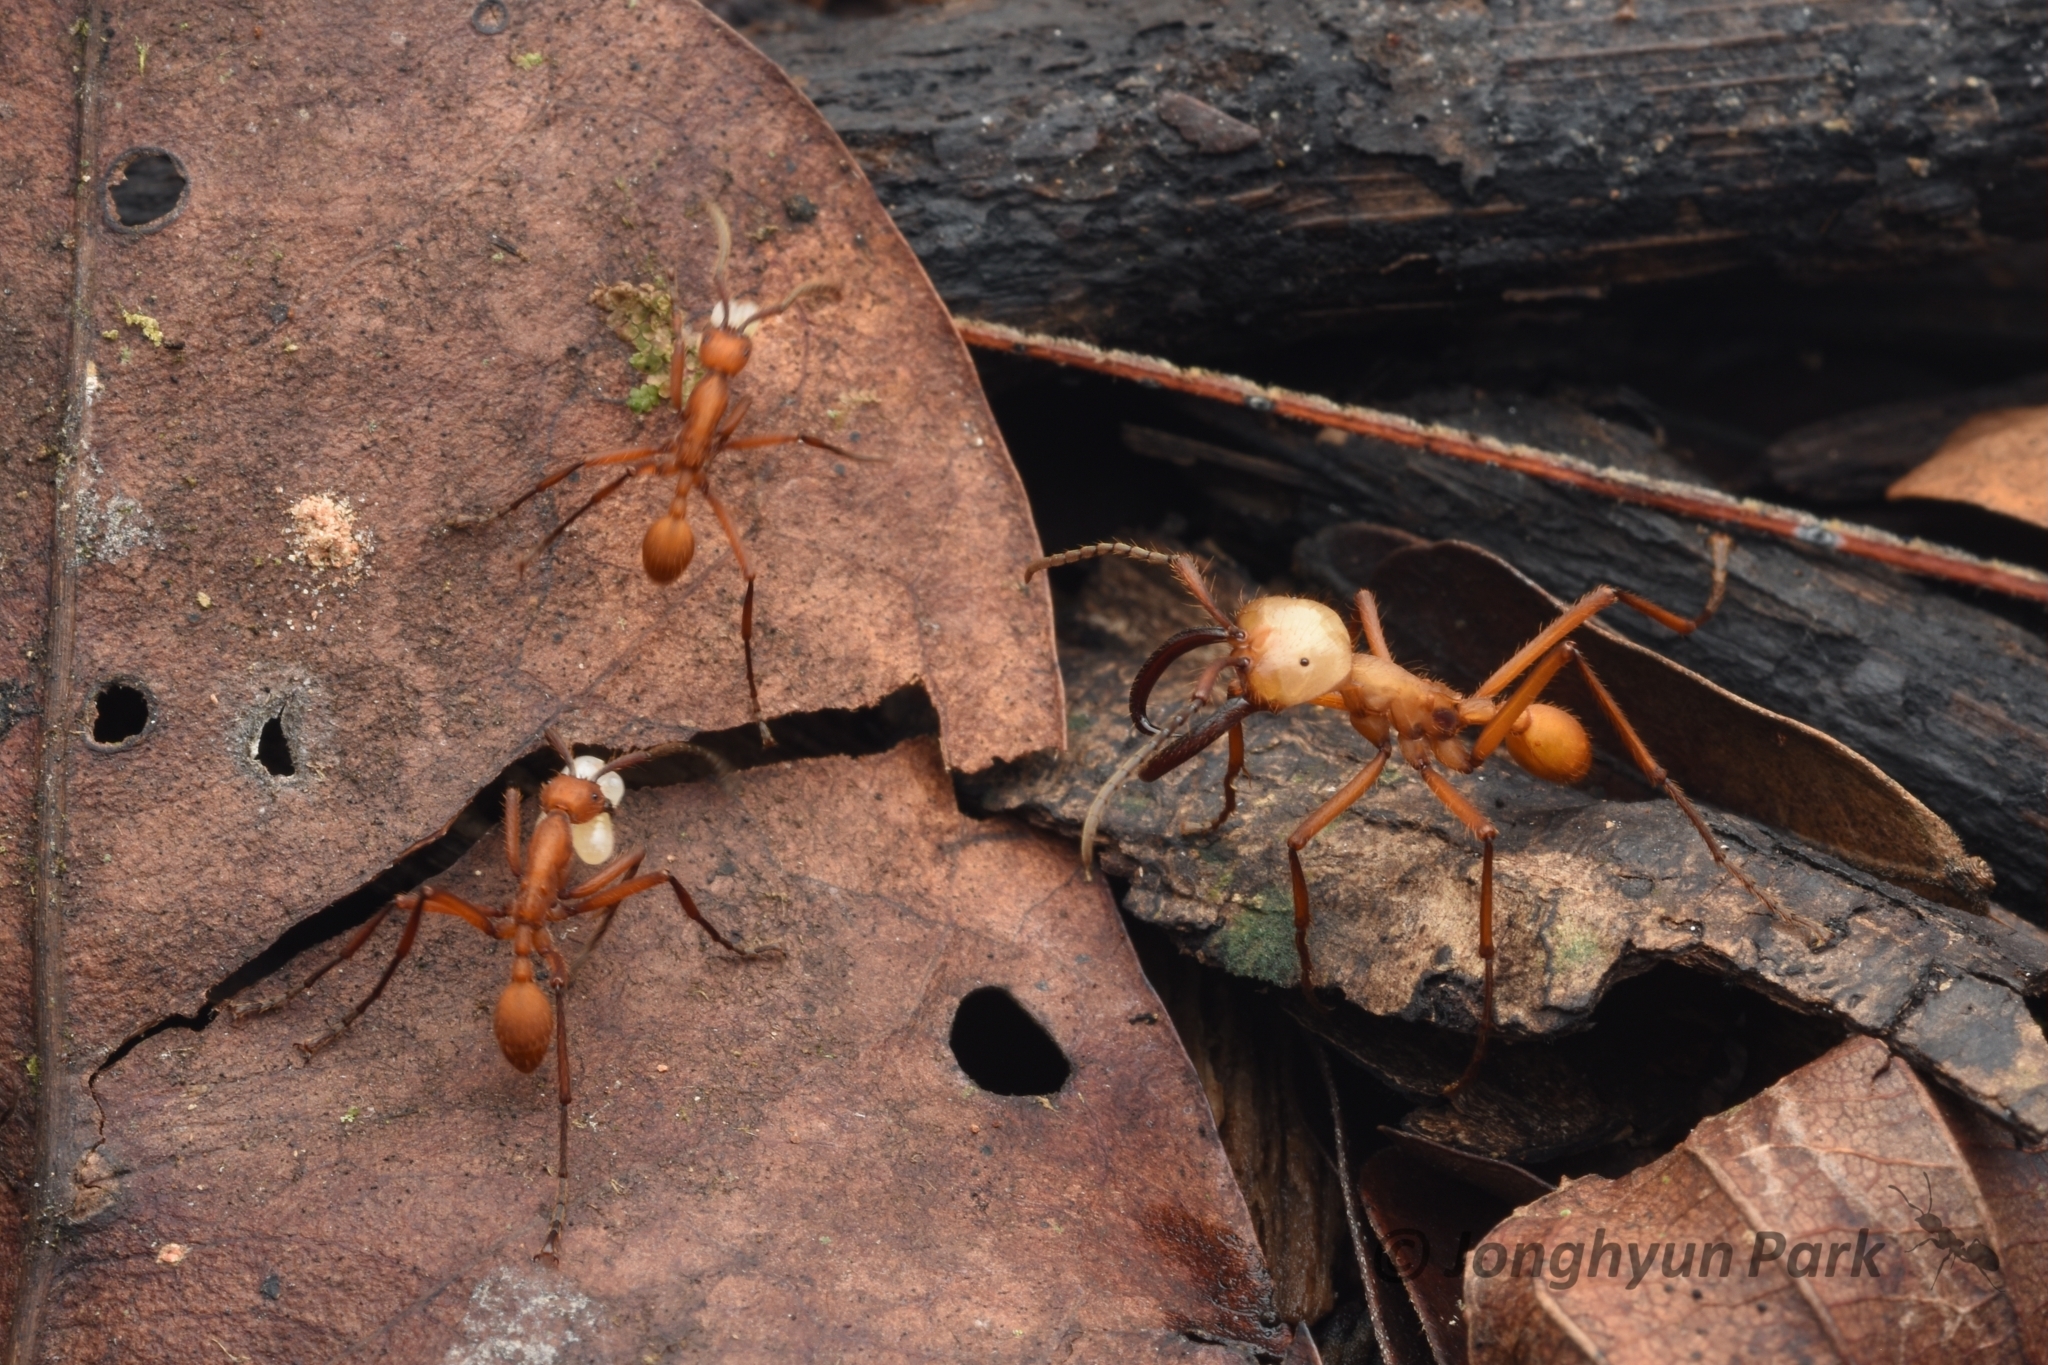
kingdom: Animalia
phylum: Arthropoda
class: Insecta
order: Hymenoptera
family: Formicidae
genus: Eciton
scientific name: Eciton hamatum
